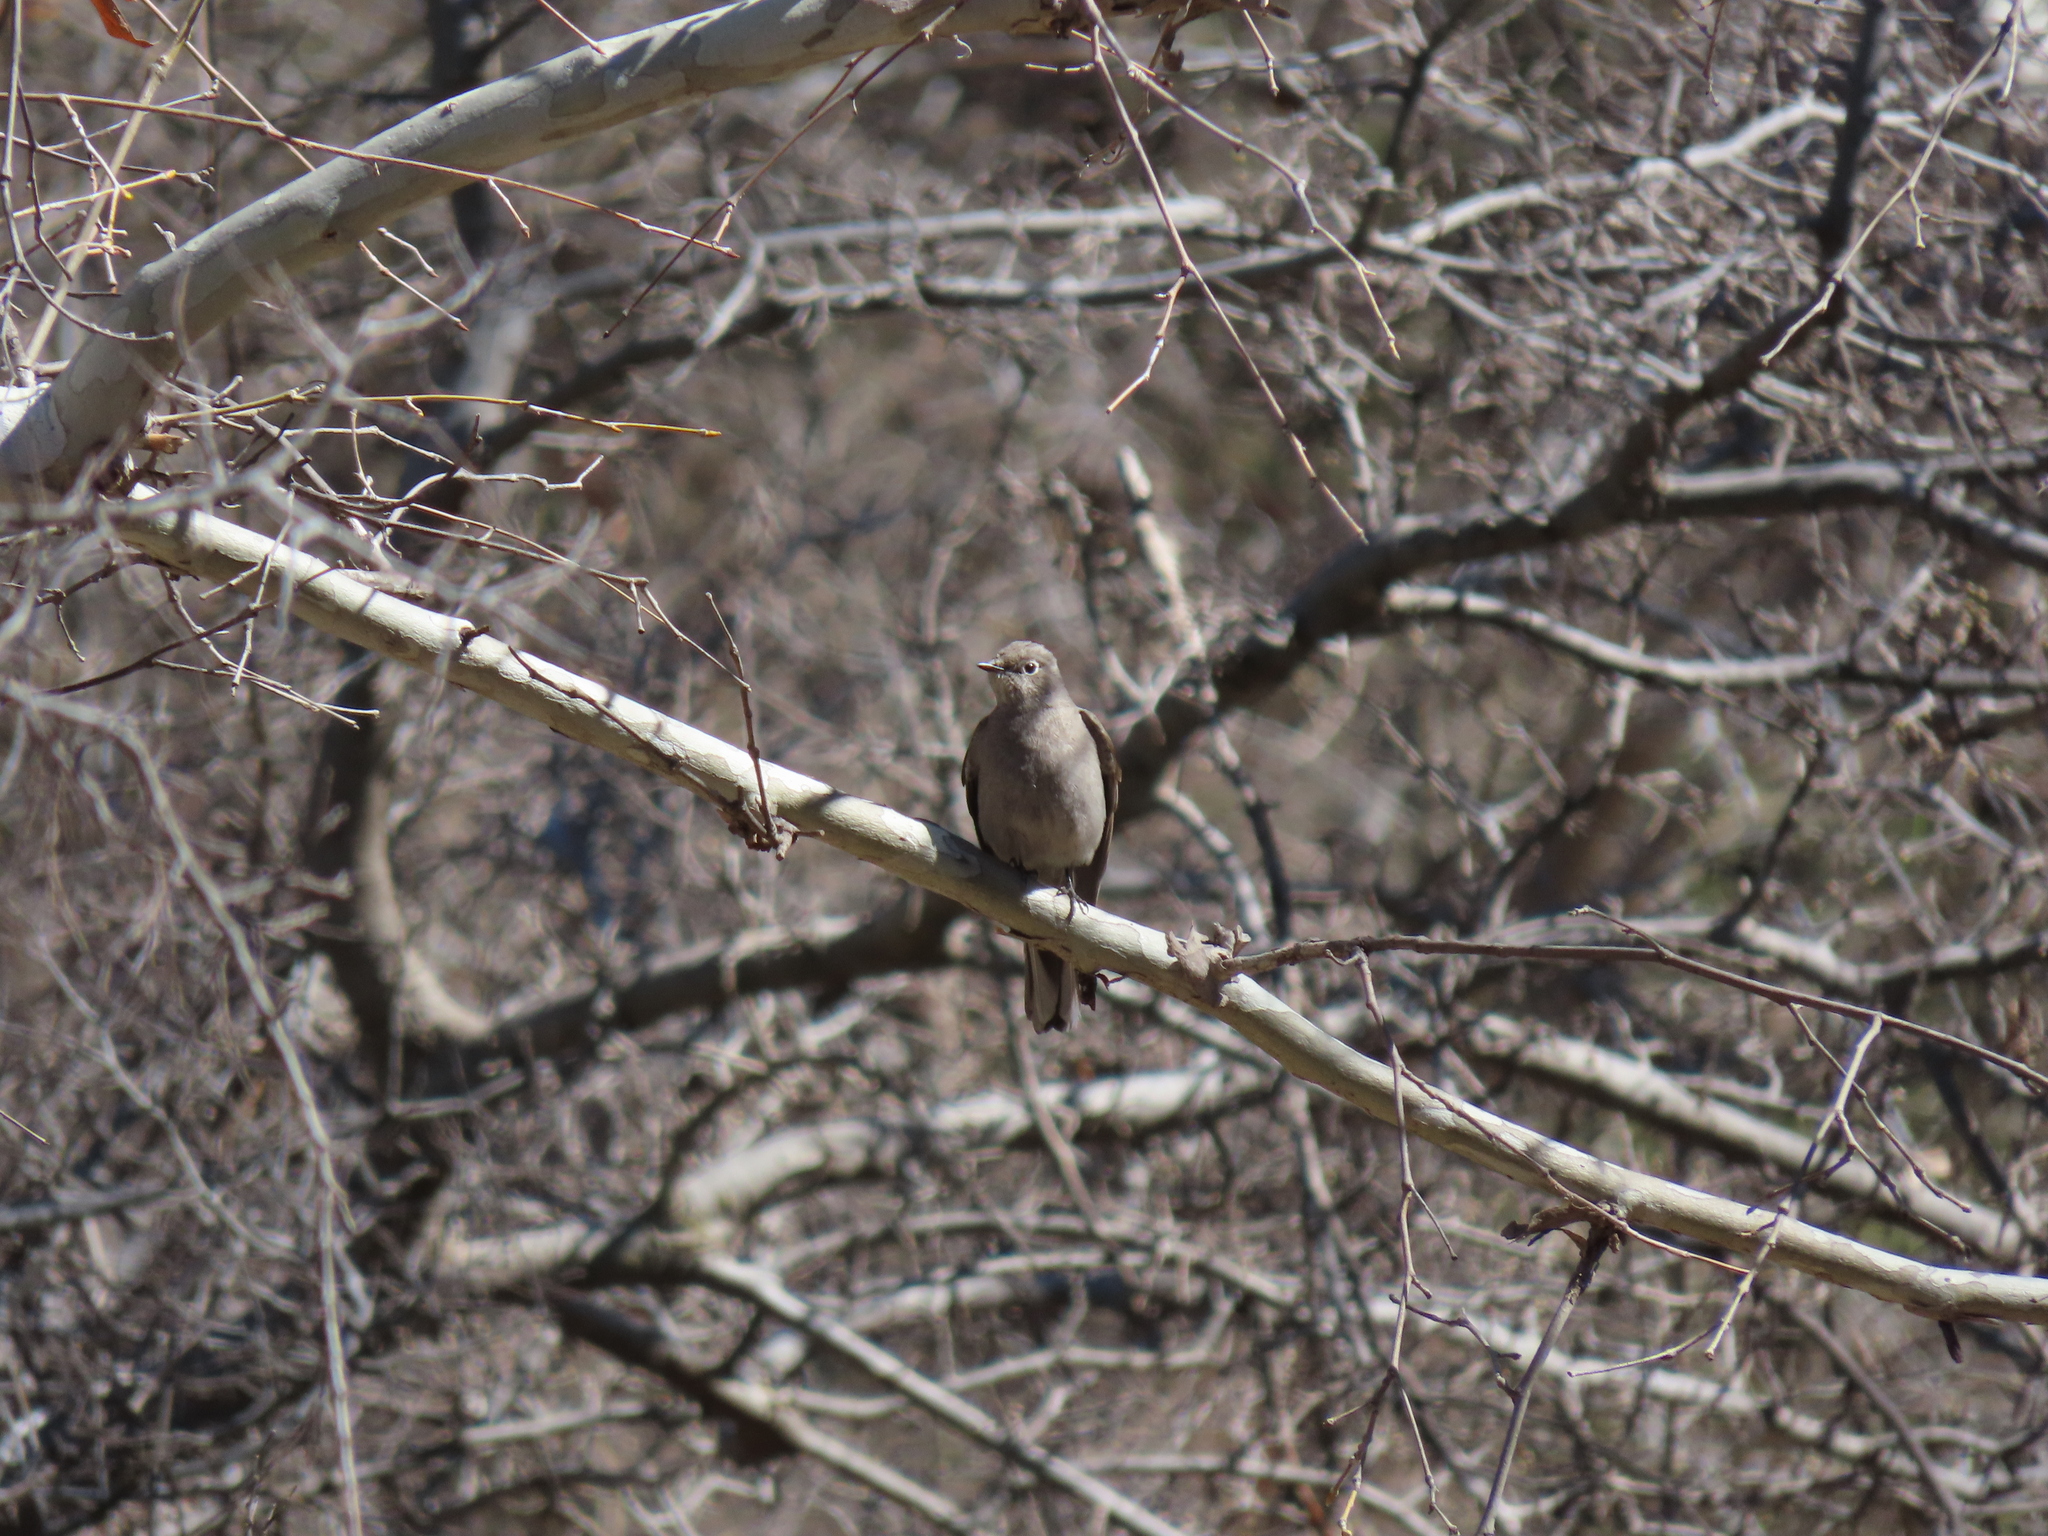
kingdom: Animalia
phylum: Chordata
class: Aves
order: Passeriformes
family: Turdidae
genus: Myadestes
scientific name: Myadestes townsendi
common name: Townsend's solitaire
